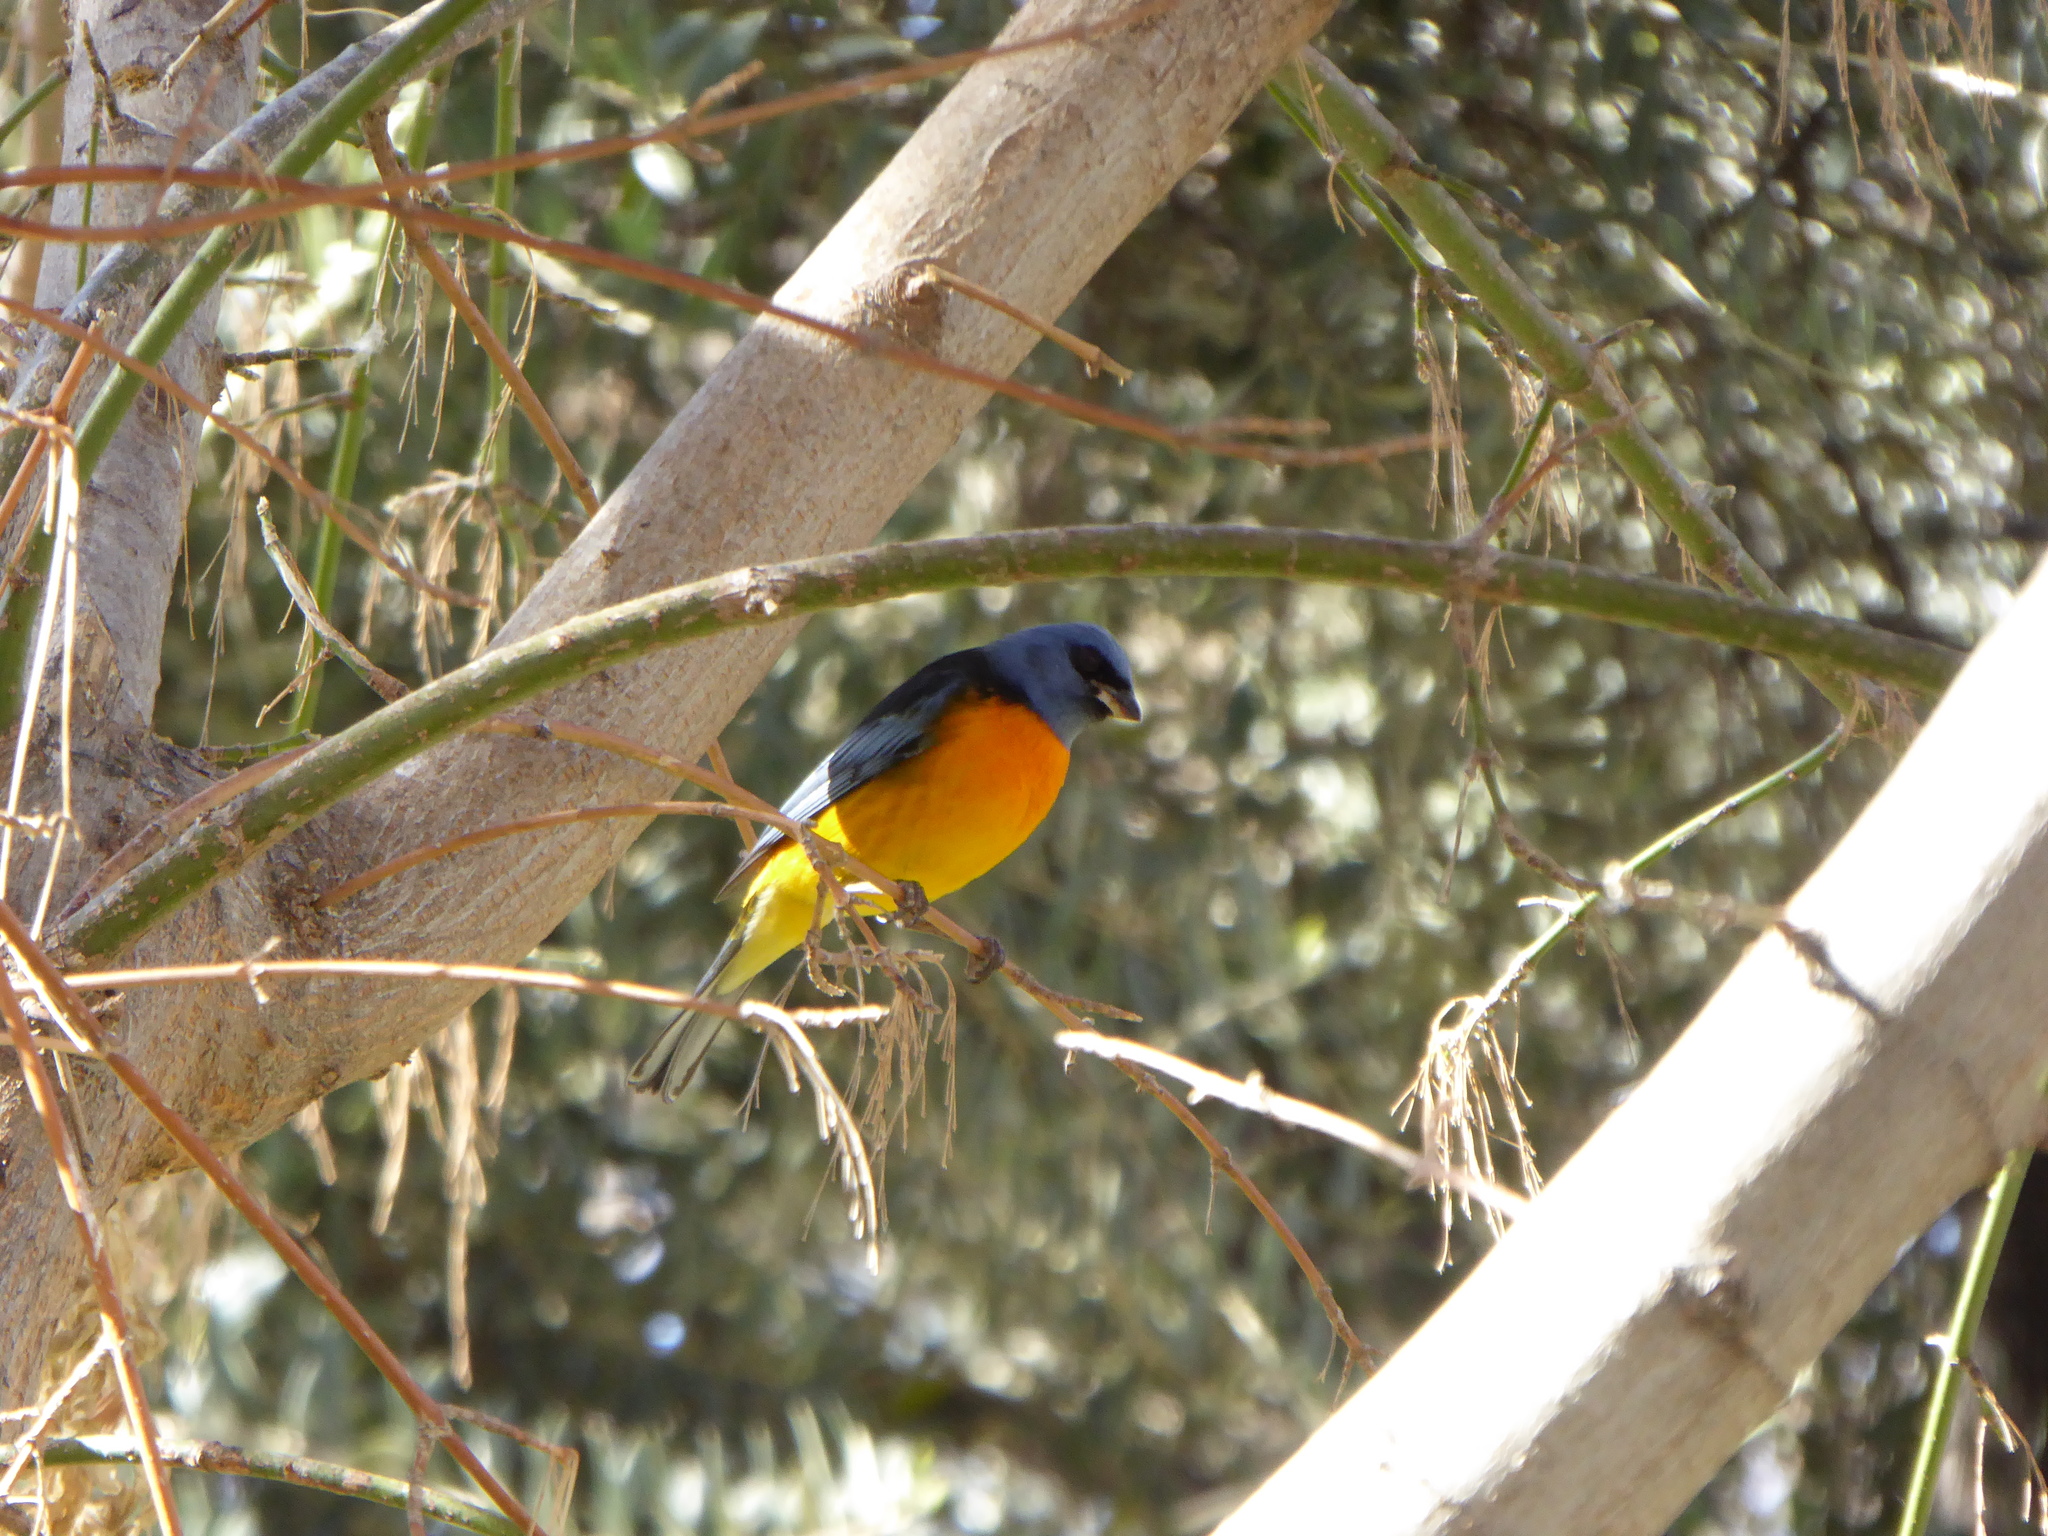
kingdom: Animalia
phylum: Chordata
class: Aves
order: Passeriformes
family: Thraupidae
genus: Rauenia
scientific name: Rauenia bonariensis
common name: Blue-and-yellow tanager
